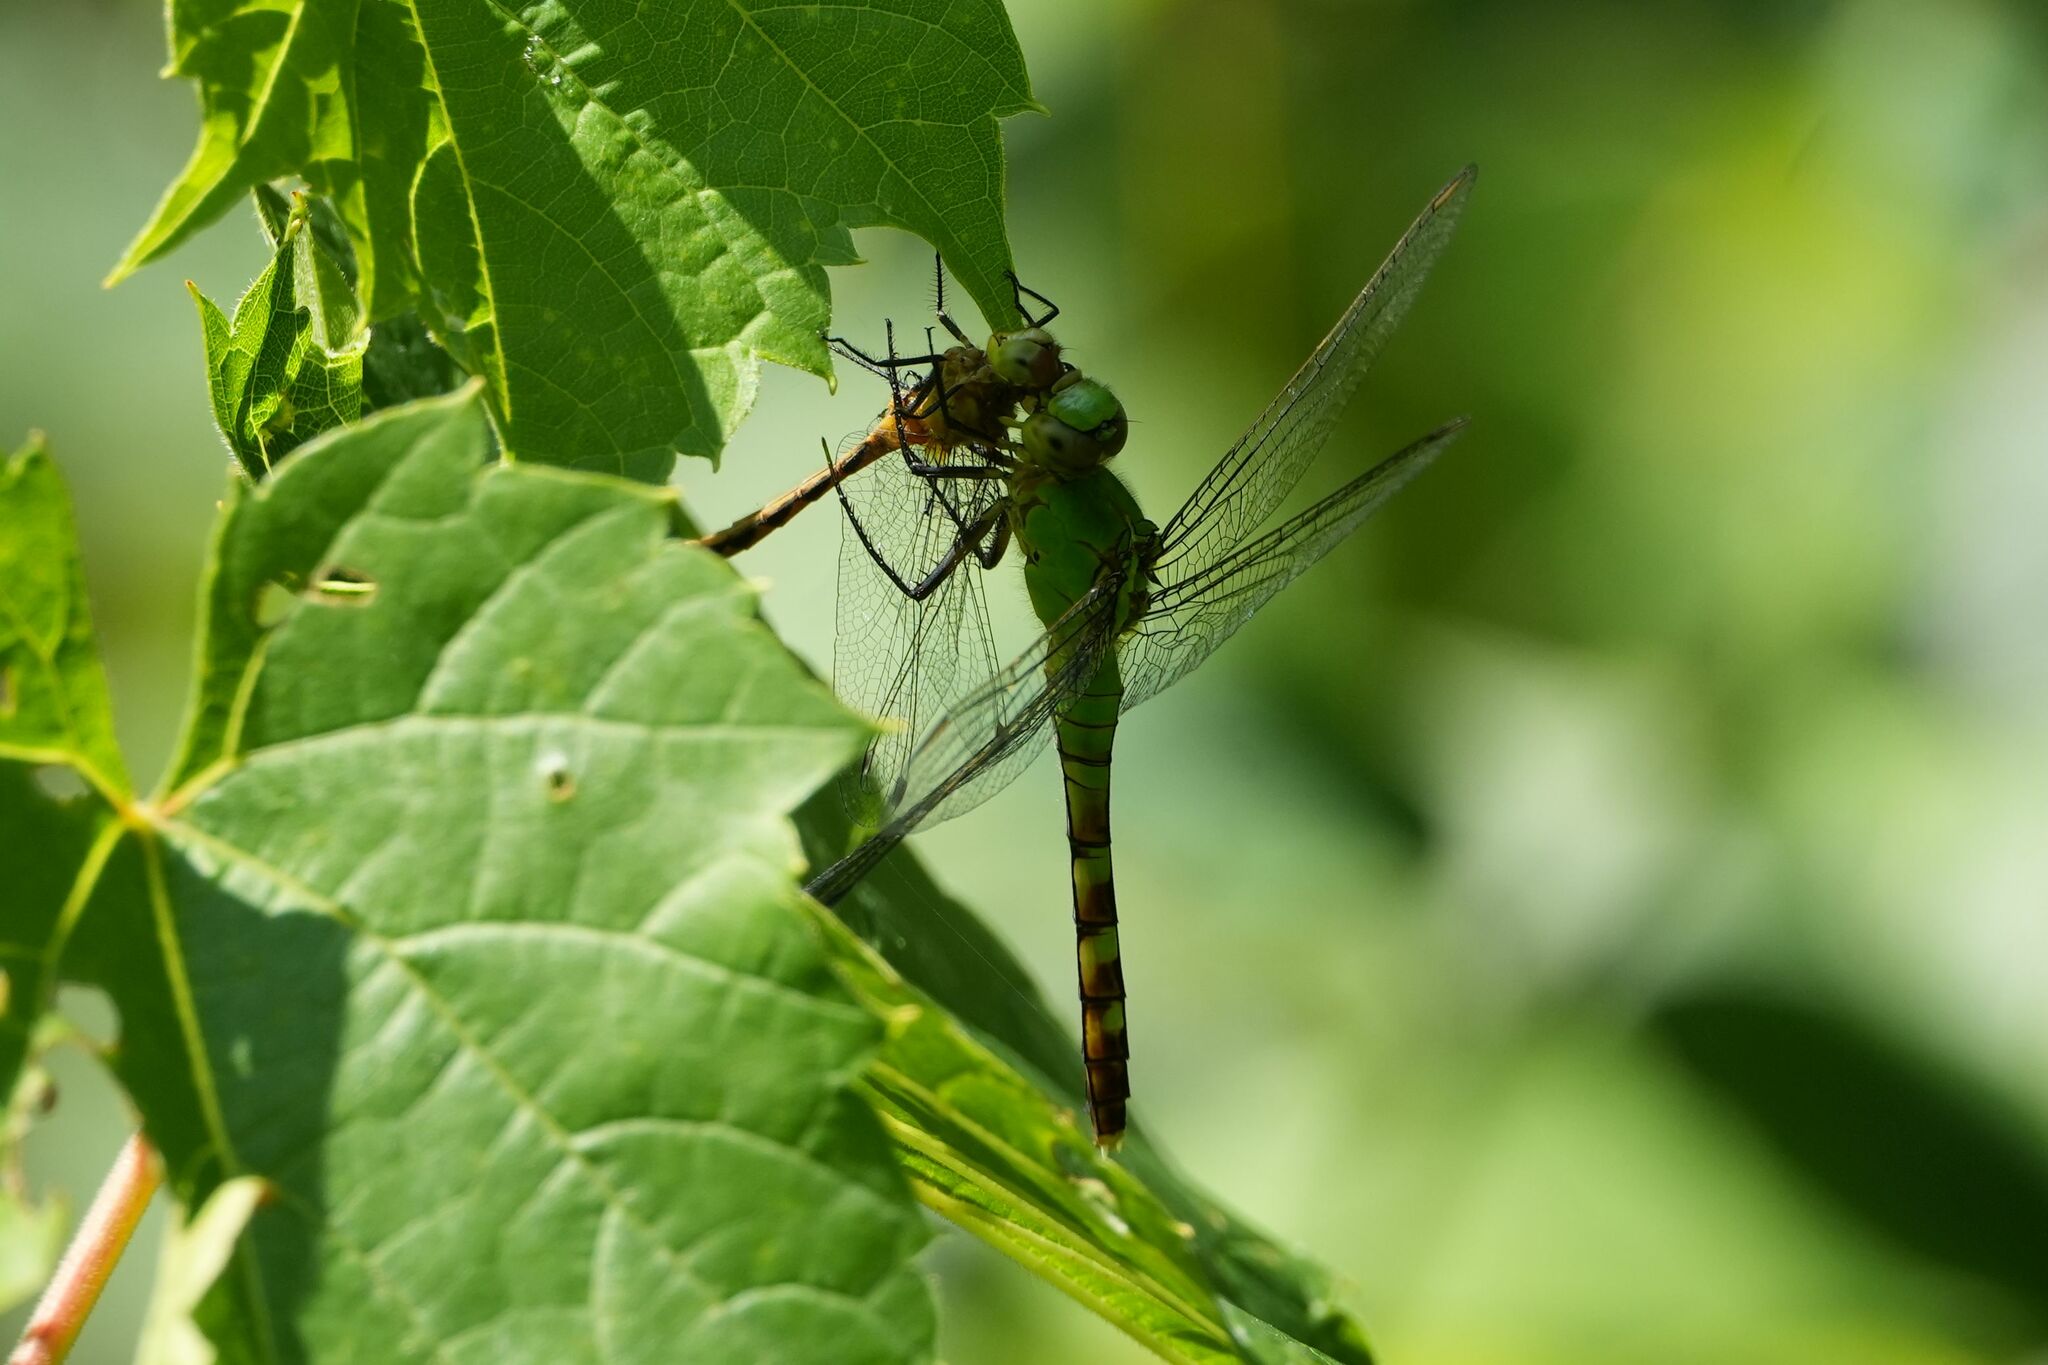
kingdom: Animalia
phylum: Arthropoda
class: Insecta
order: Odonata
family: Libellulidae
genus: Erythemis
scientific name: Erythemis simplicicollis
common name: Eastern pondhawk
